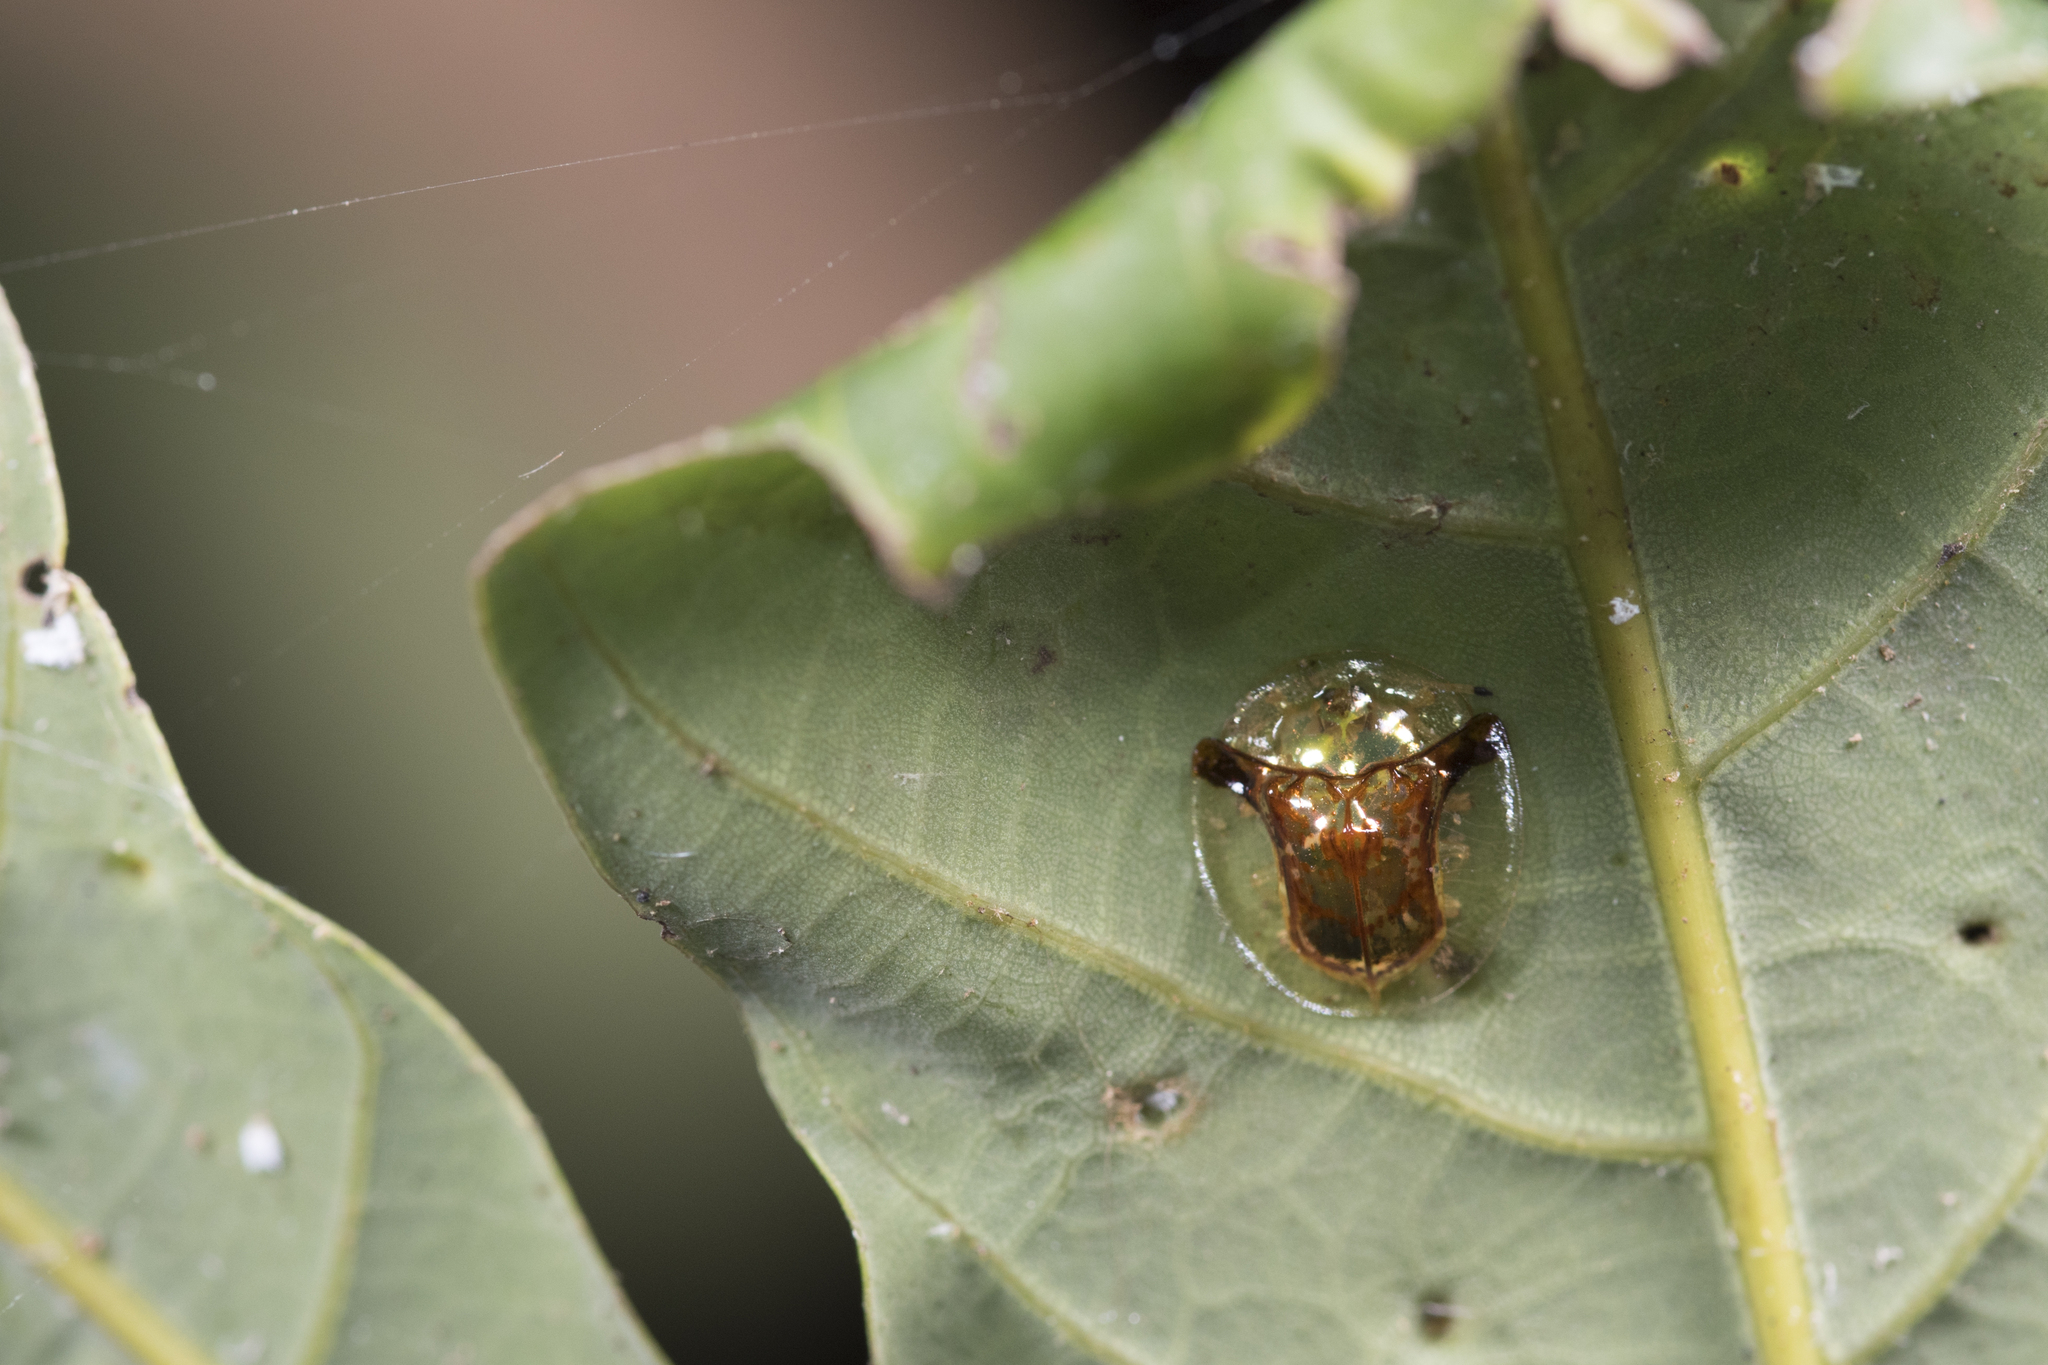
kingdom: Animalia
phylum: Arthropoda
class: Insecta
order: Coleoptera
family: Chrysomelidae
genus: Aspidimorpha
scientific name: Aspidimorpha furcata
